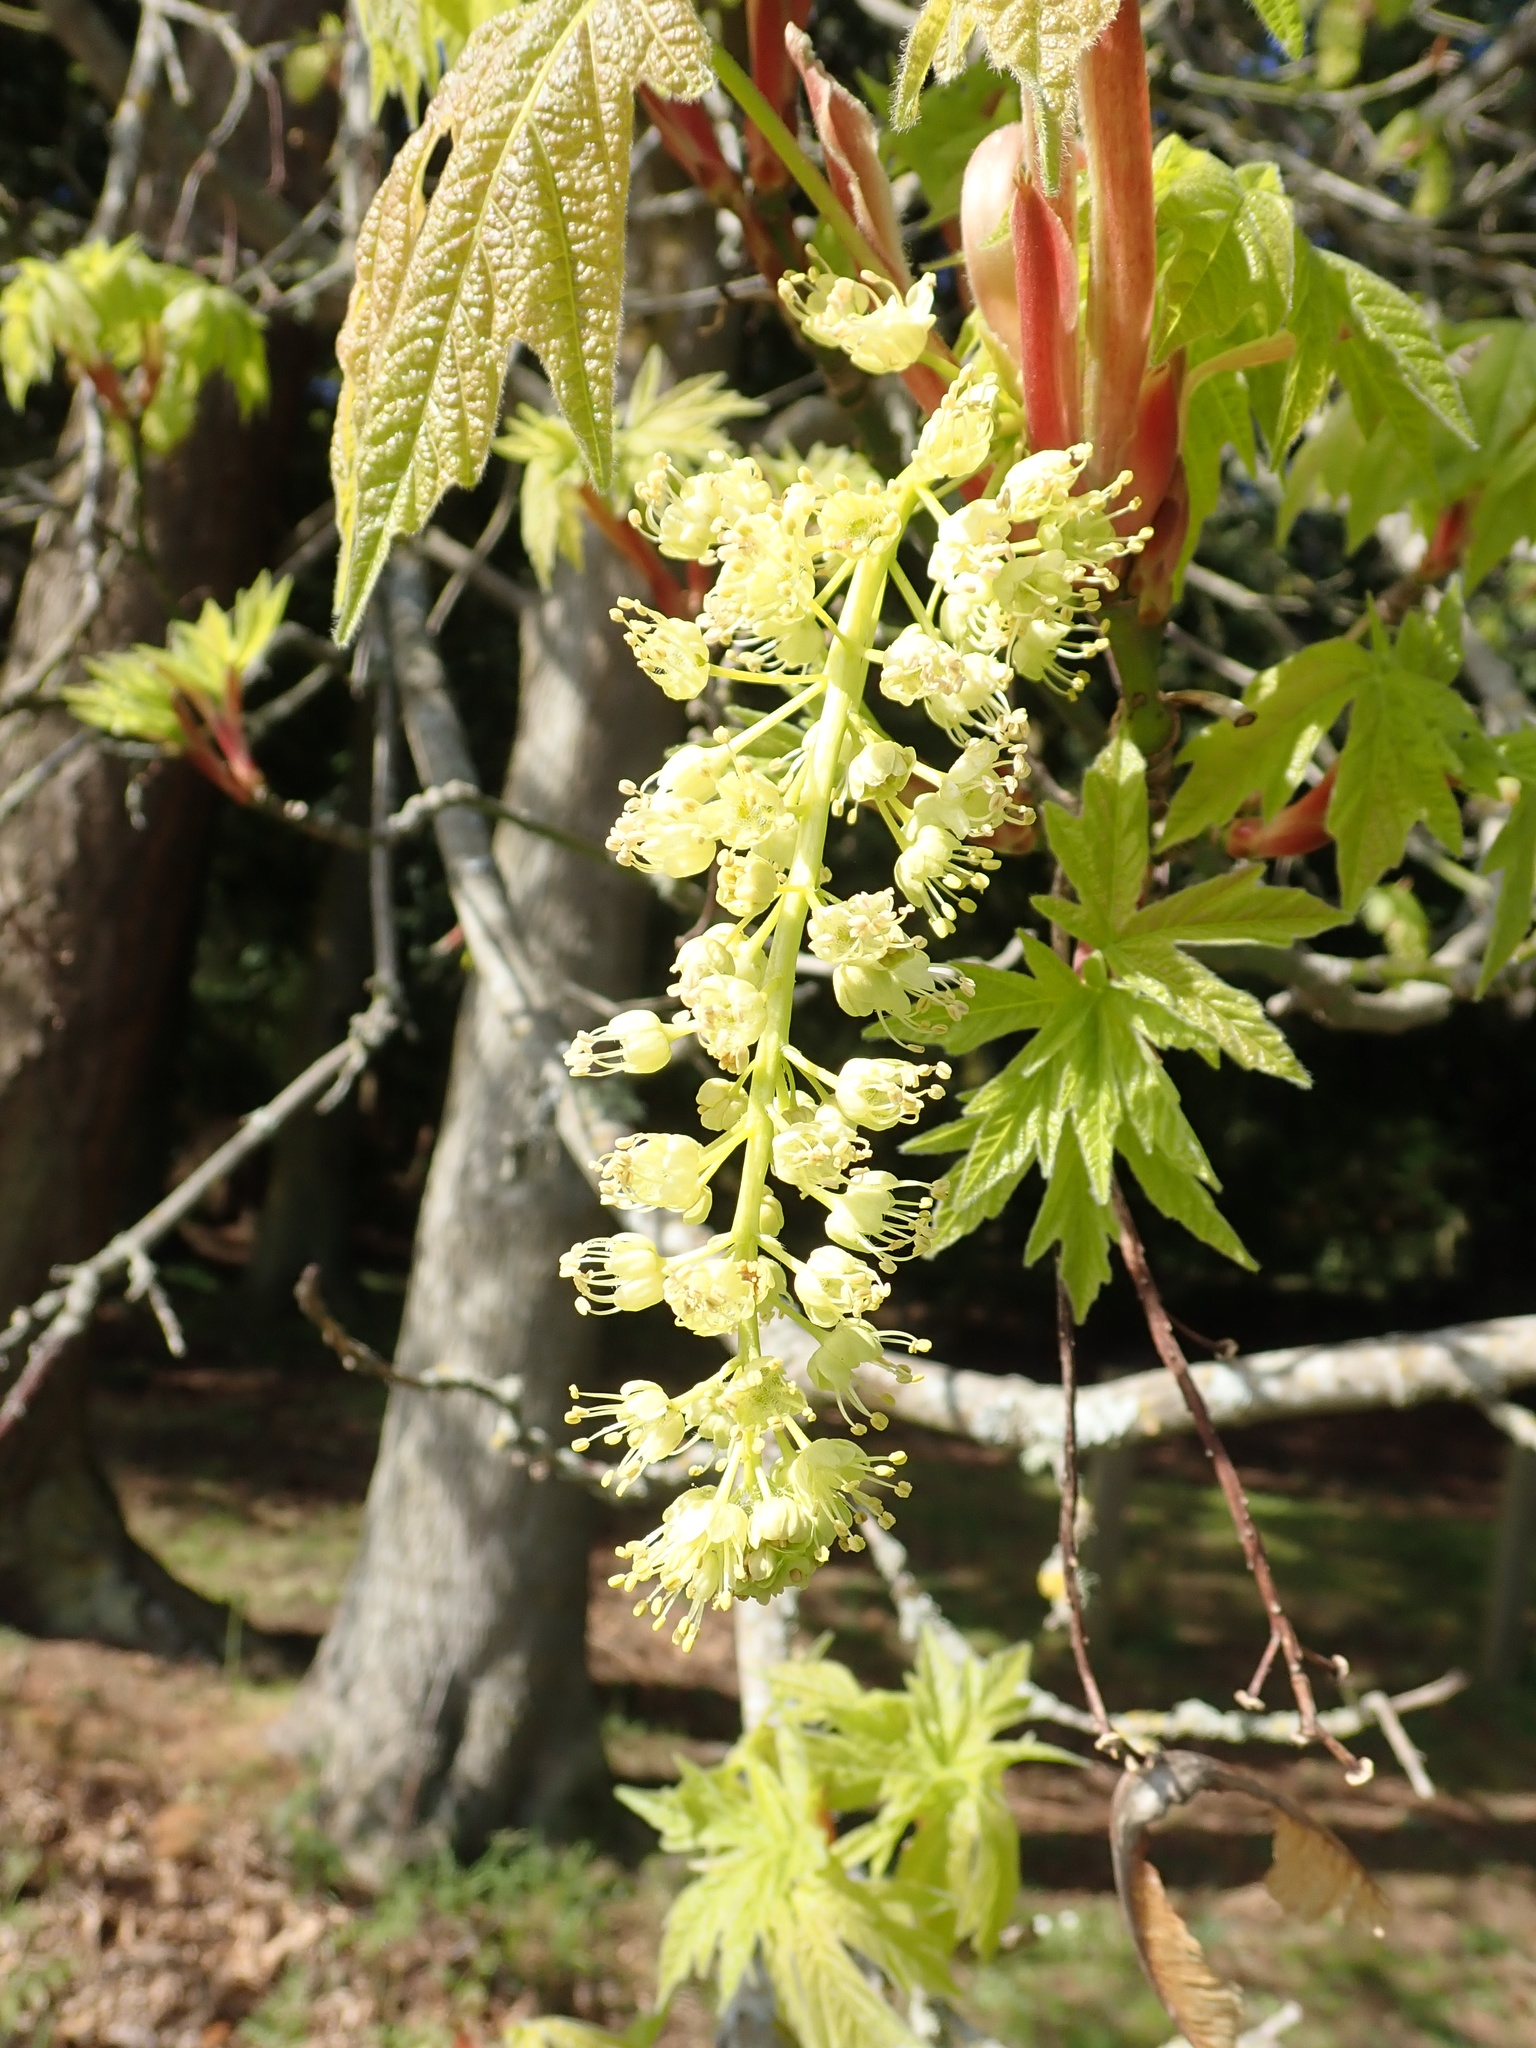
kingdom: Plantae
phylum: Tracheophyta
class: Magnoliopsida
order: Sapindales
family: Sapindaceae
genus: Acer
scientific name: Acer macrophyllum
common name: Oregon maple
